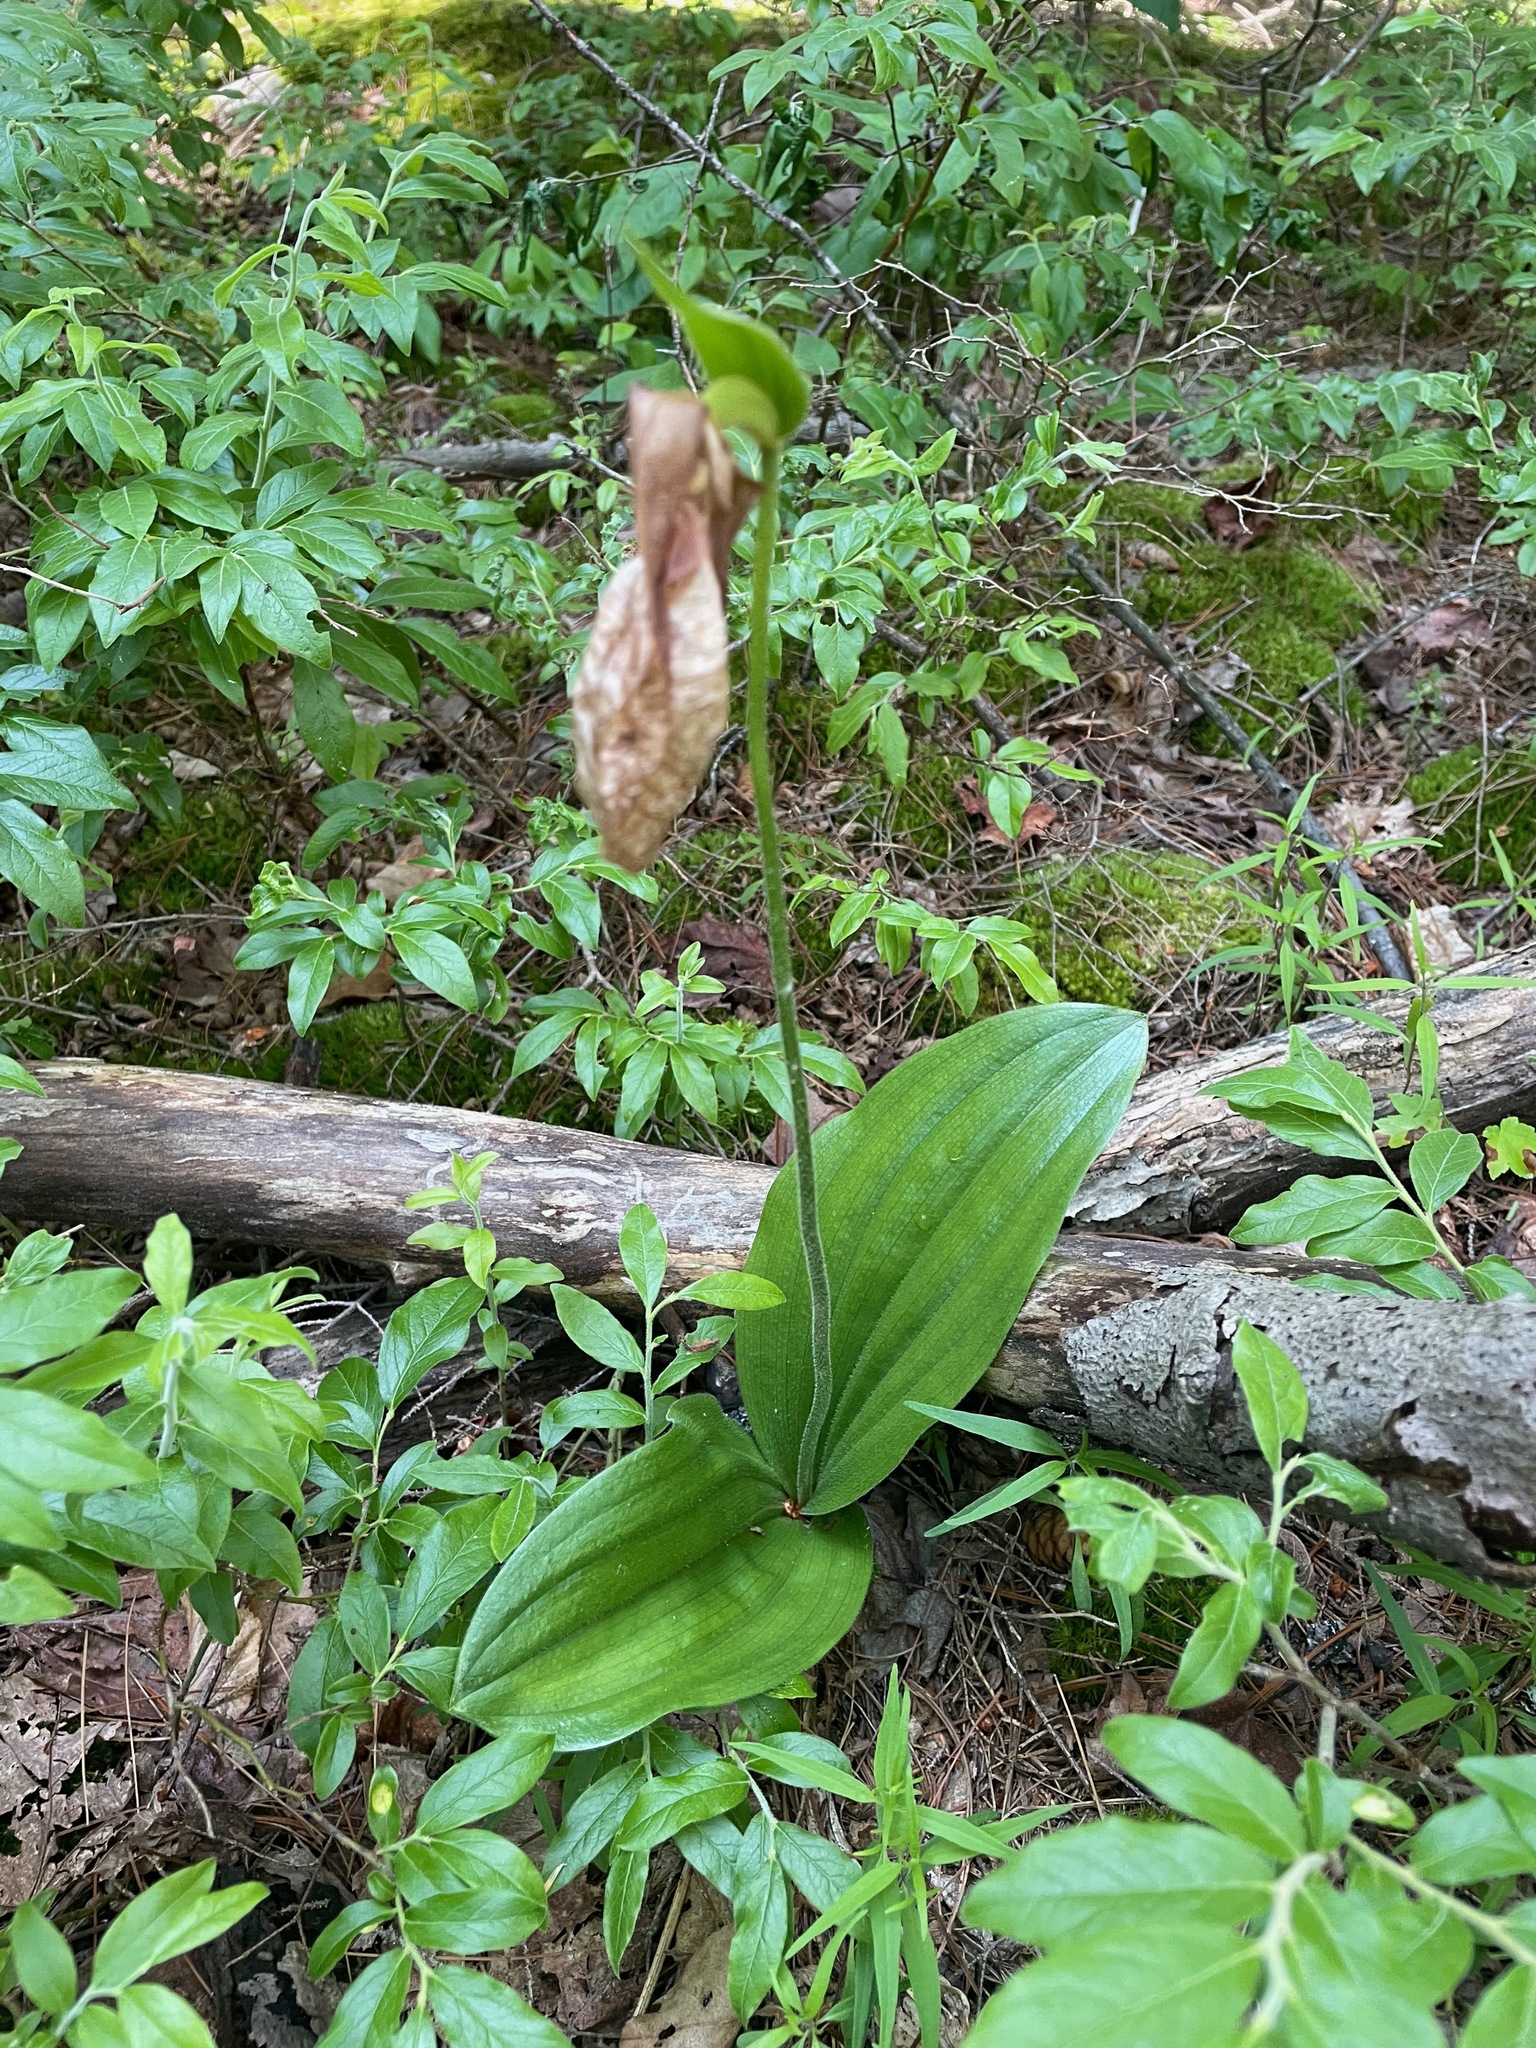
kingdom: Plantae
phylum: Tracheophyta
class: Liliopsida
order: Asparagales
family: Orchidaceae
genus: Cypripedium
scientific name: Cypripedium acaule
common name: Pink lady's-slipper
